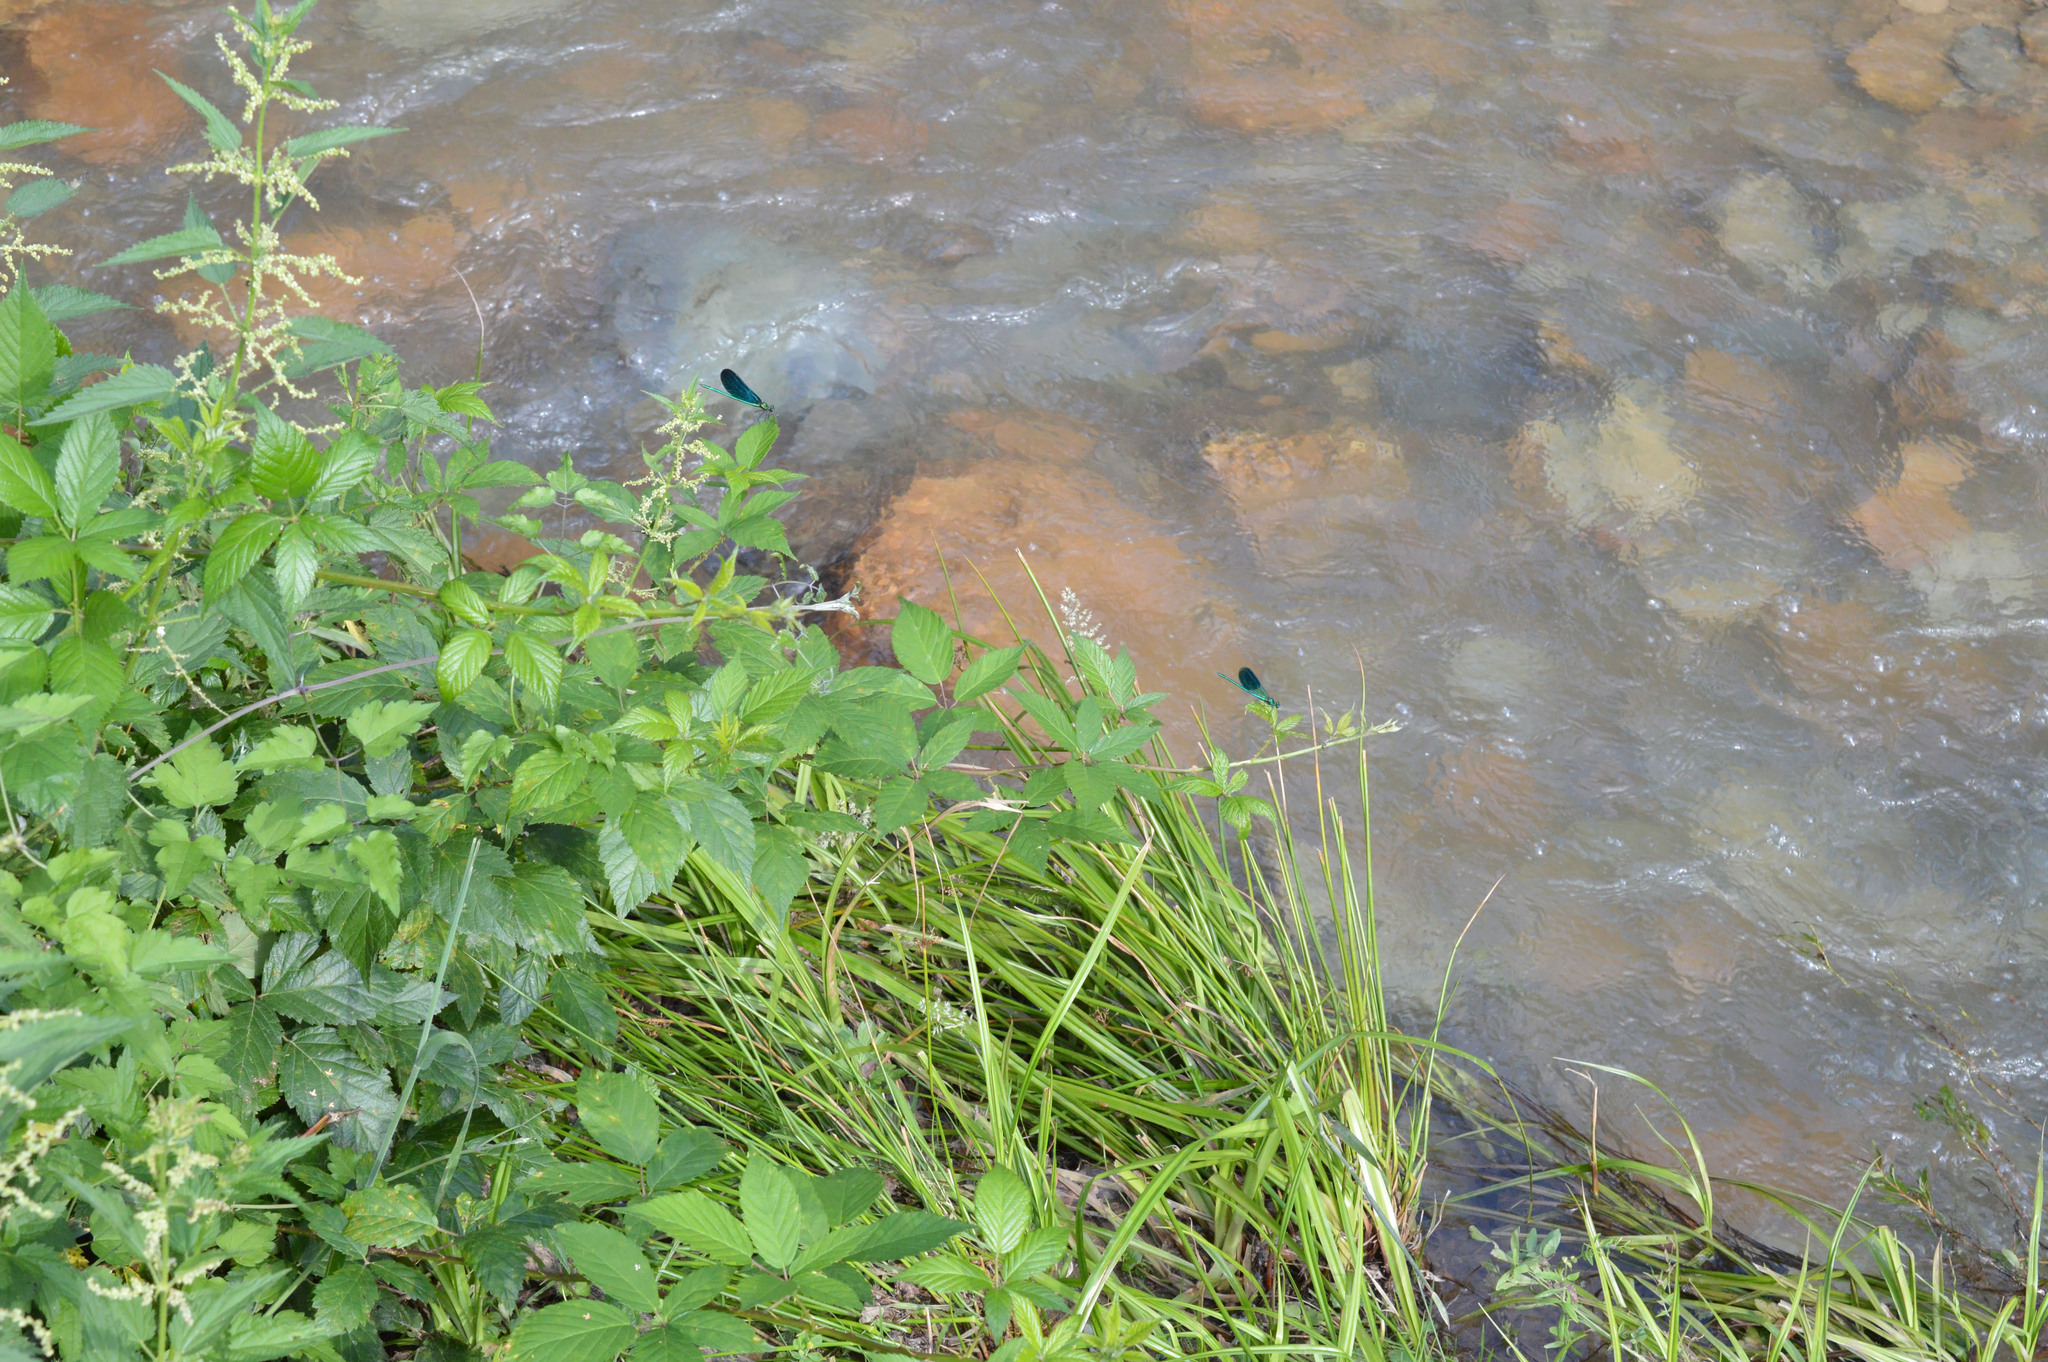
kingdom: Animalia
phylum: Arthropoda
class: Insecta
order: Odonata
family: Calopterygidae
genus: Calopteryx
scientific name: Calopteryx splendens
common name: Banded demoiselle
